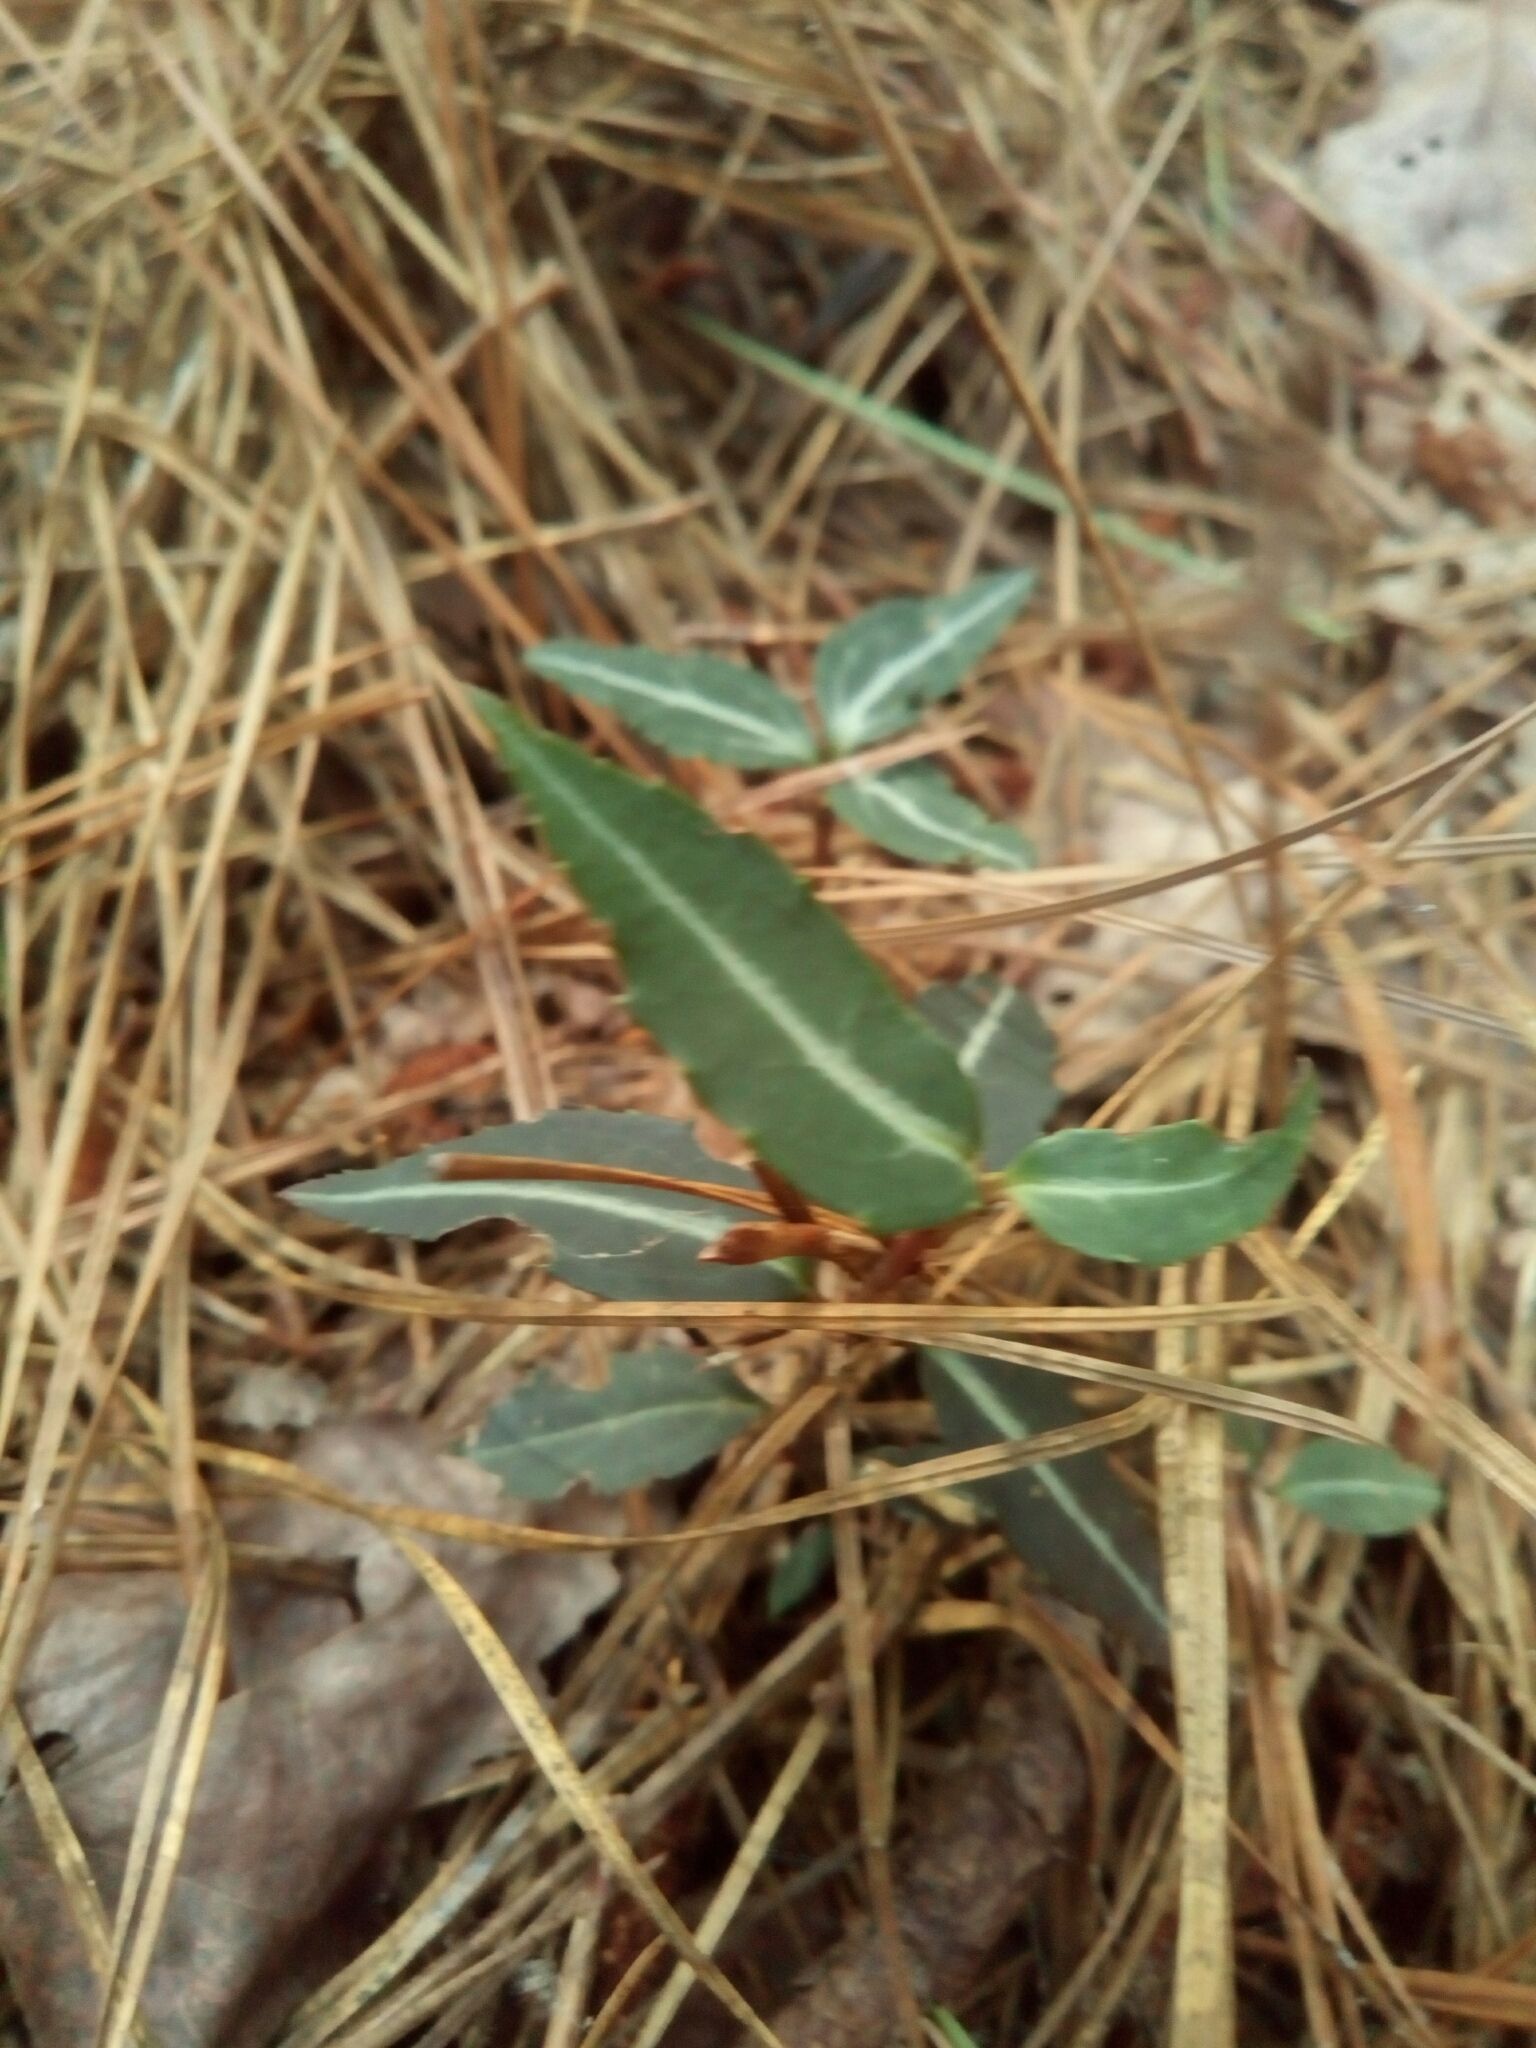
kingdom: Plantae
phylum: Tracheophyta
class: Magnoliopsida
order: Ericales
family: Ericaceae
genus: Chimaphila
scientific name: Chimaphila maculata
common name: Spotted pipsissewa
